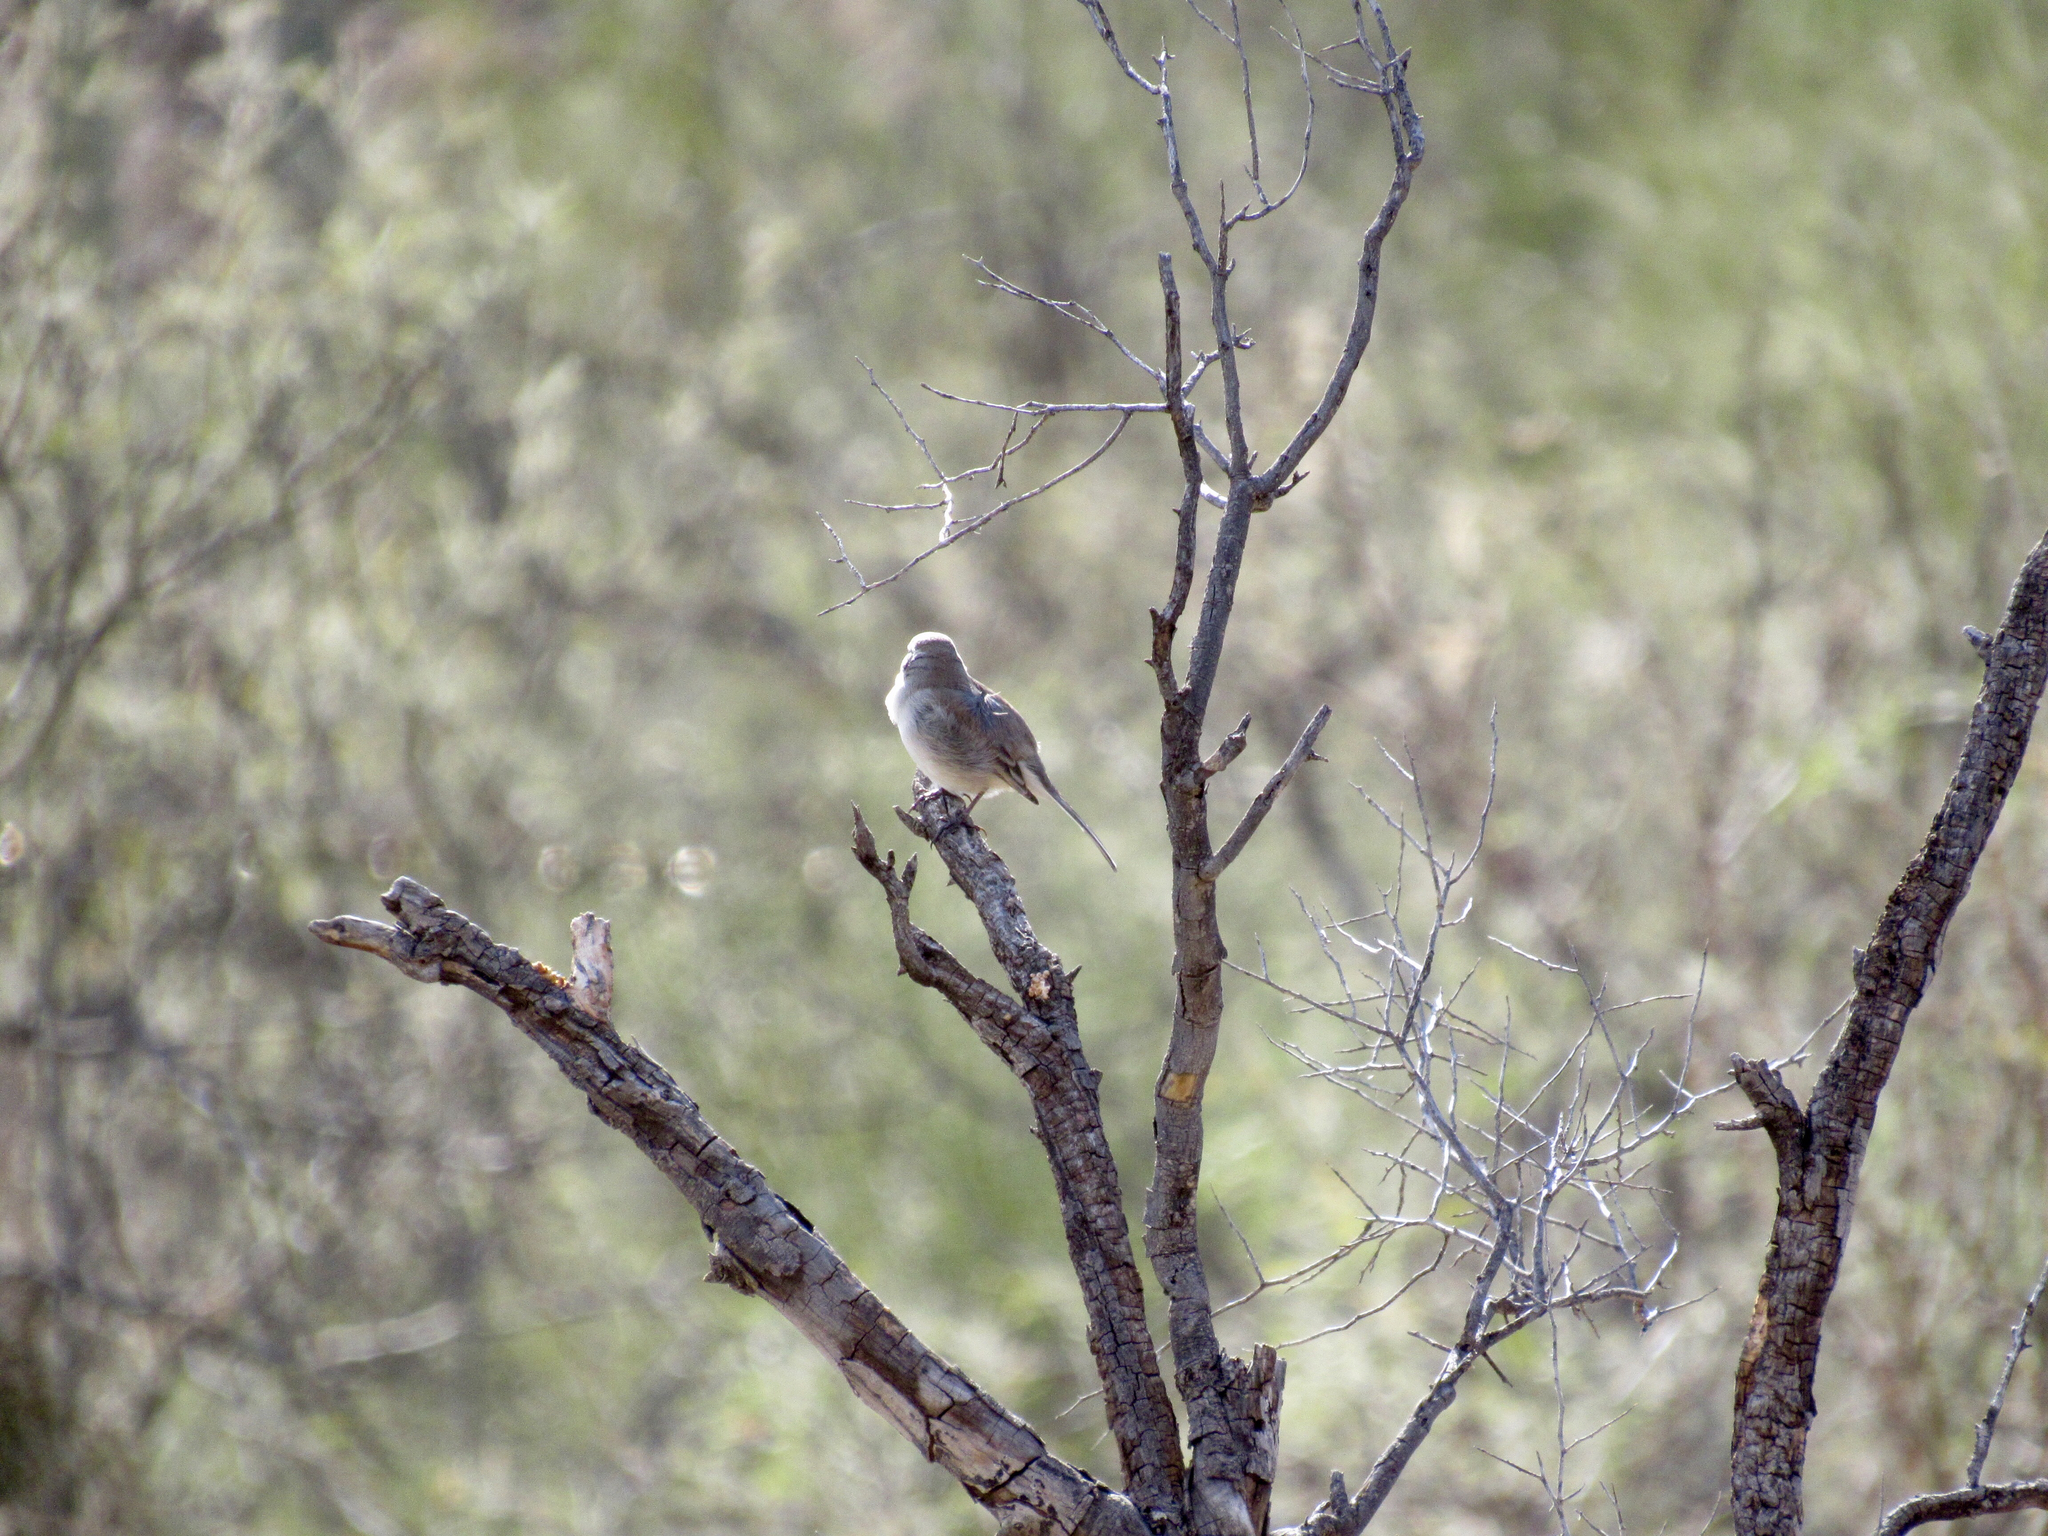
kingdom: Animalia
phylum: Chordata
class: Aves
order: Passeriformes
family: Passerellidae
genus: Amphispiza
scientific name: Amphispiza bilineata
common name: Black-throated sparrow
